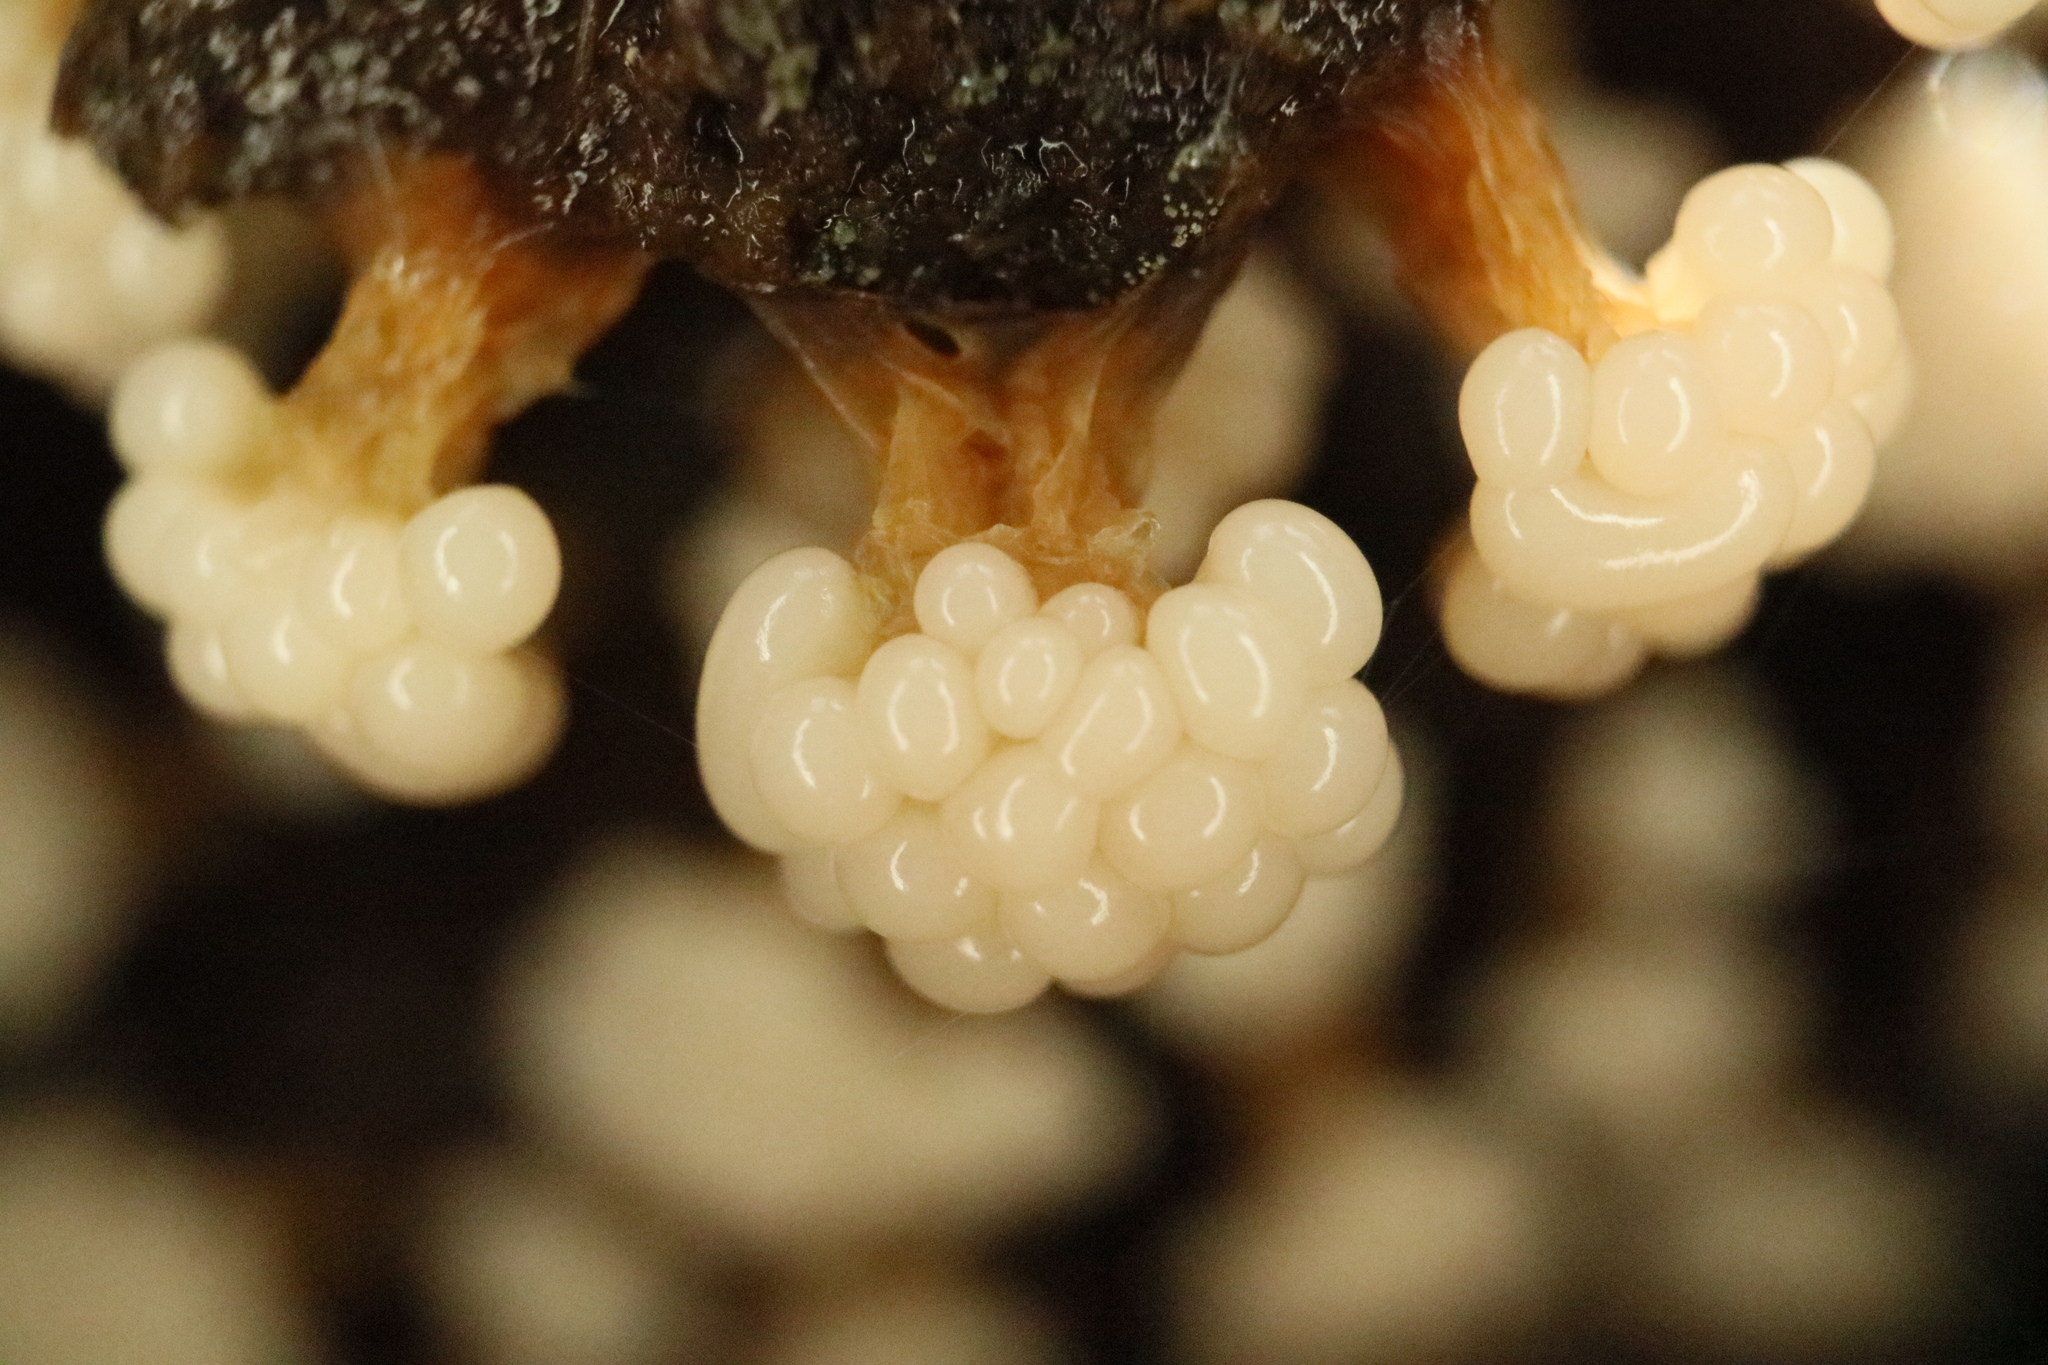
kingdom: Protozoa
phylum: Mycetozoa
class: Myxomycetes
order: Trichiales
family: Trichiaceae
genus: Oligonema
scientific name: Oligonema verrucosum
